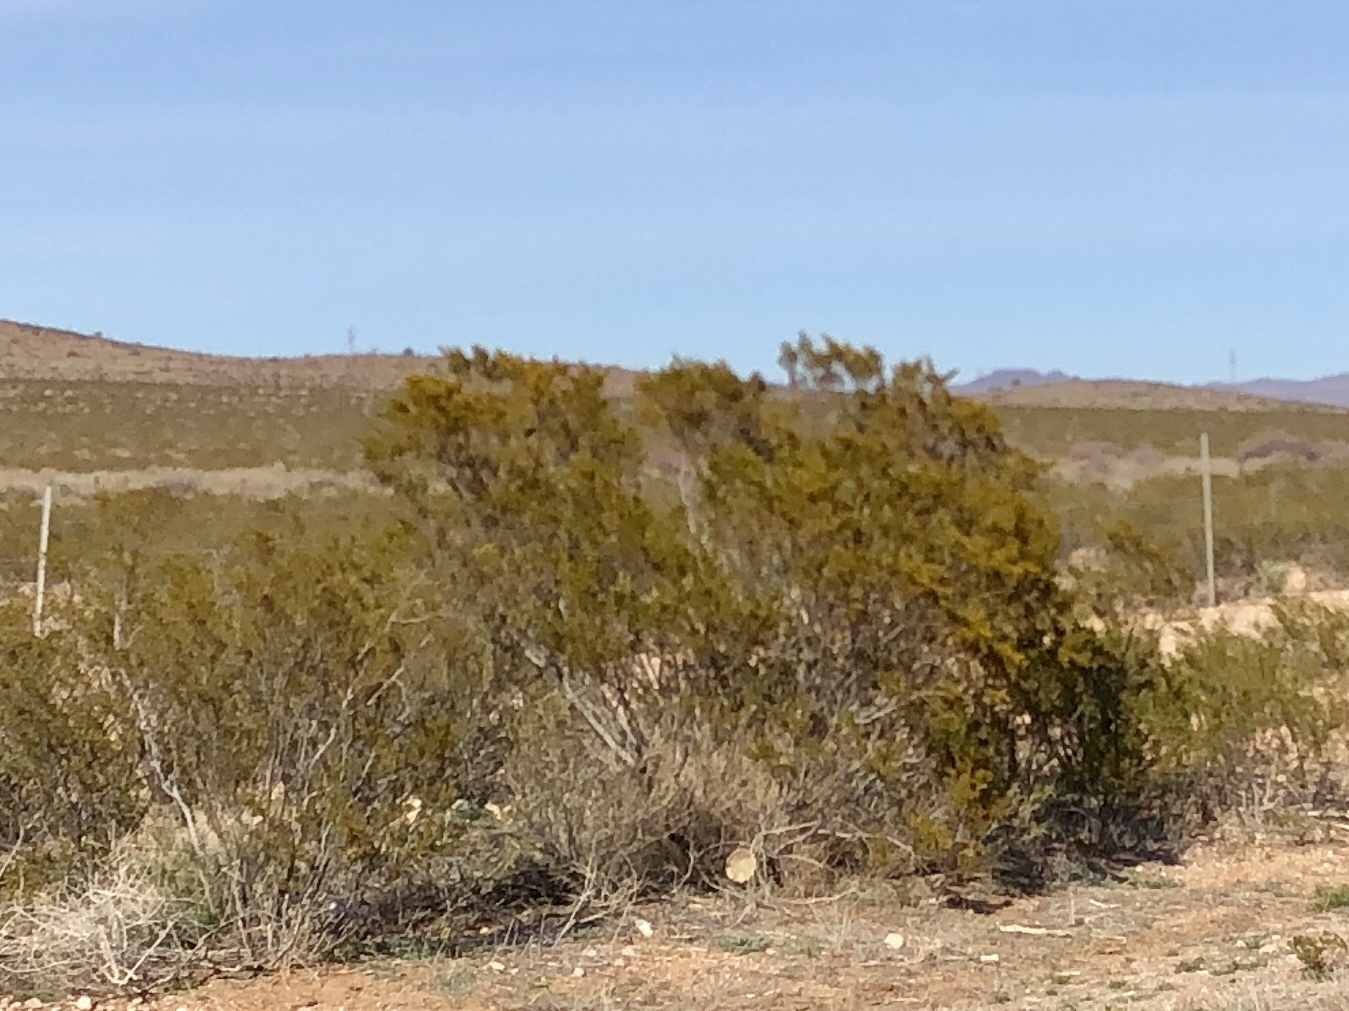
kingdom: Plantae
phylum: Tracheophyta
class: Magnoliopsida
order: Zygophyllales
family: Zygophyllaceae
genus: Larrea
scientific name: Larrea tridentata
